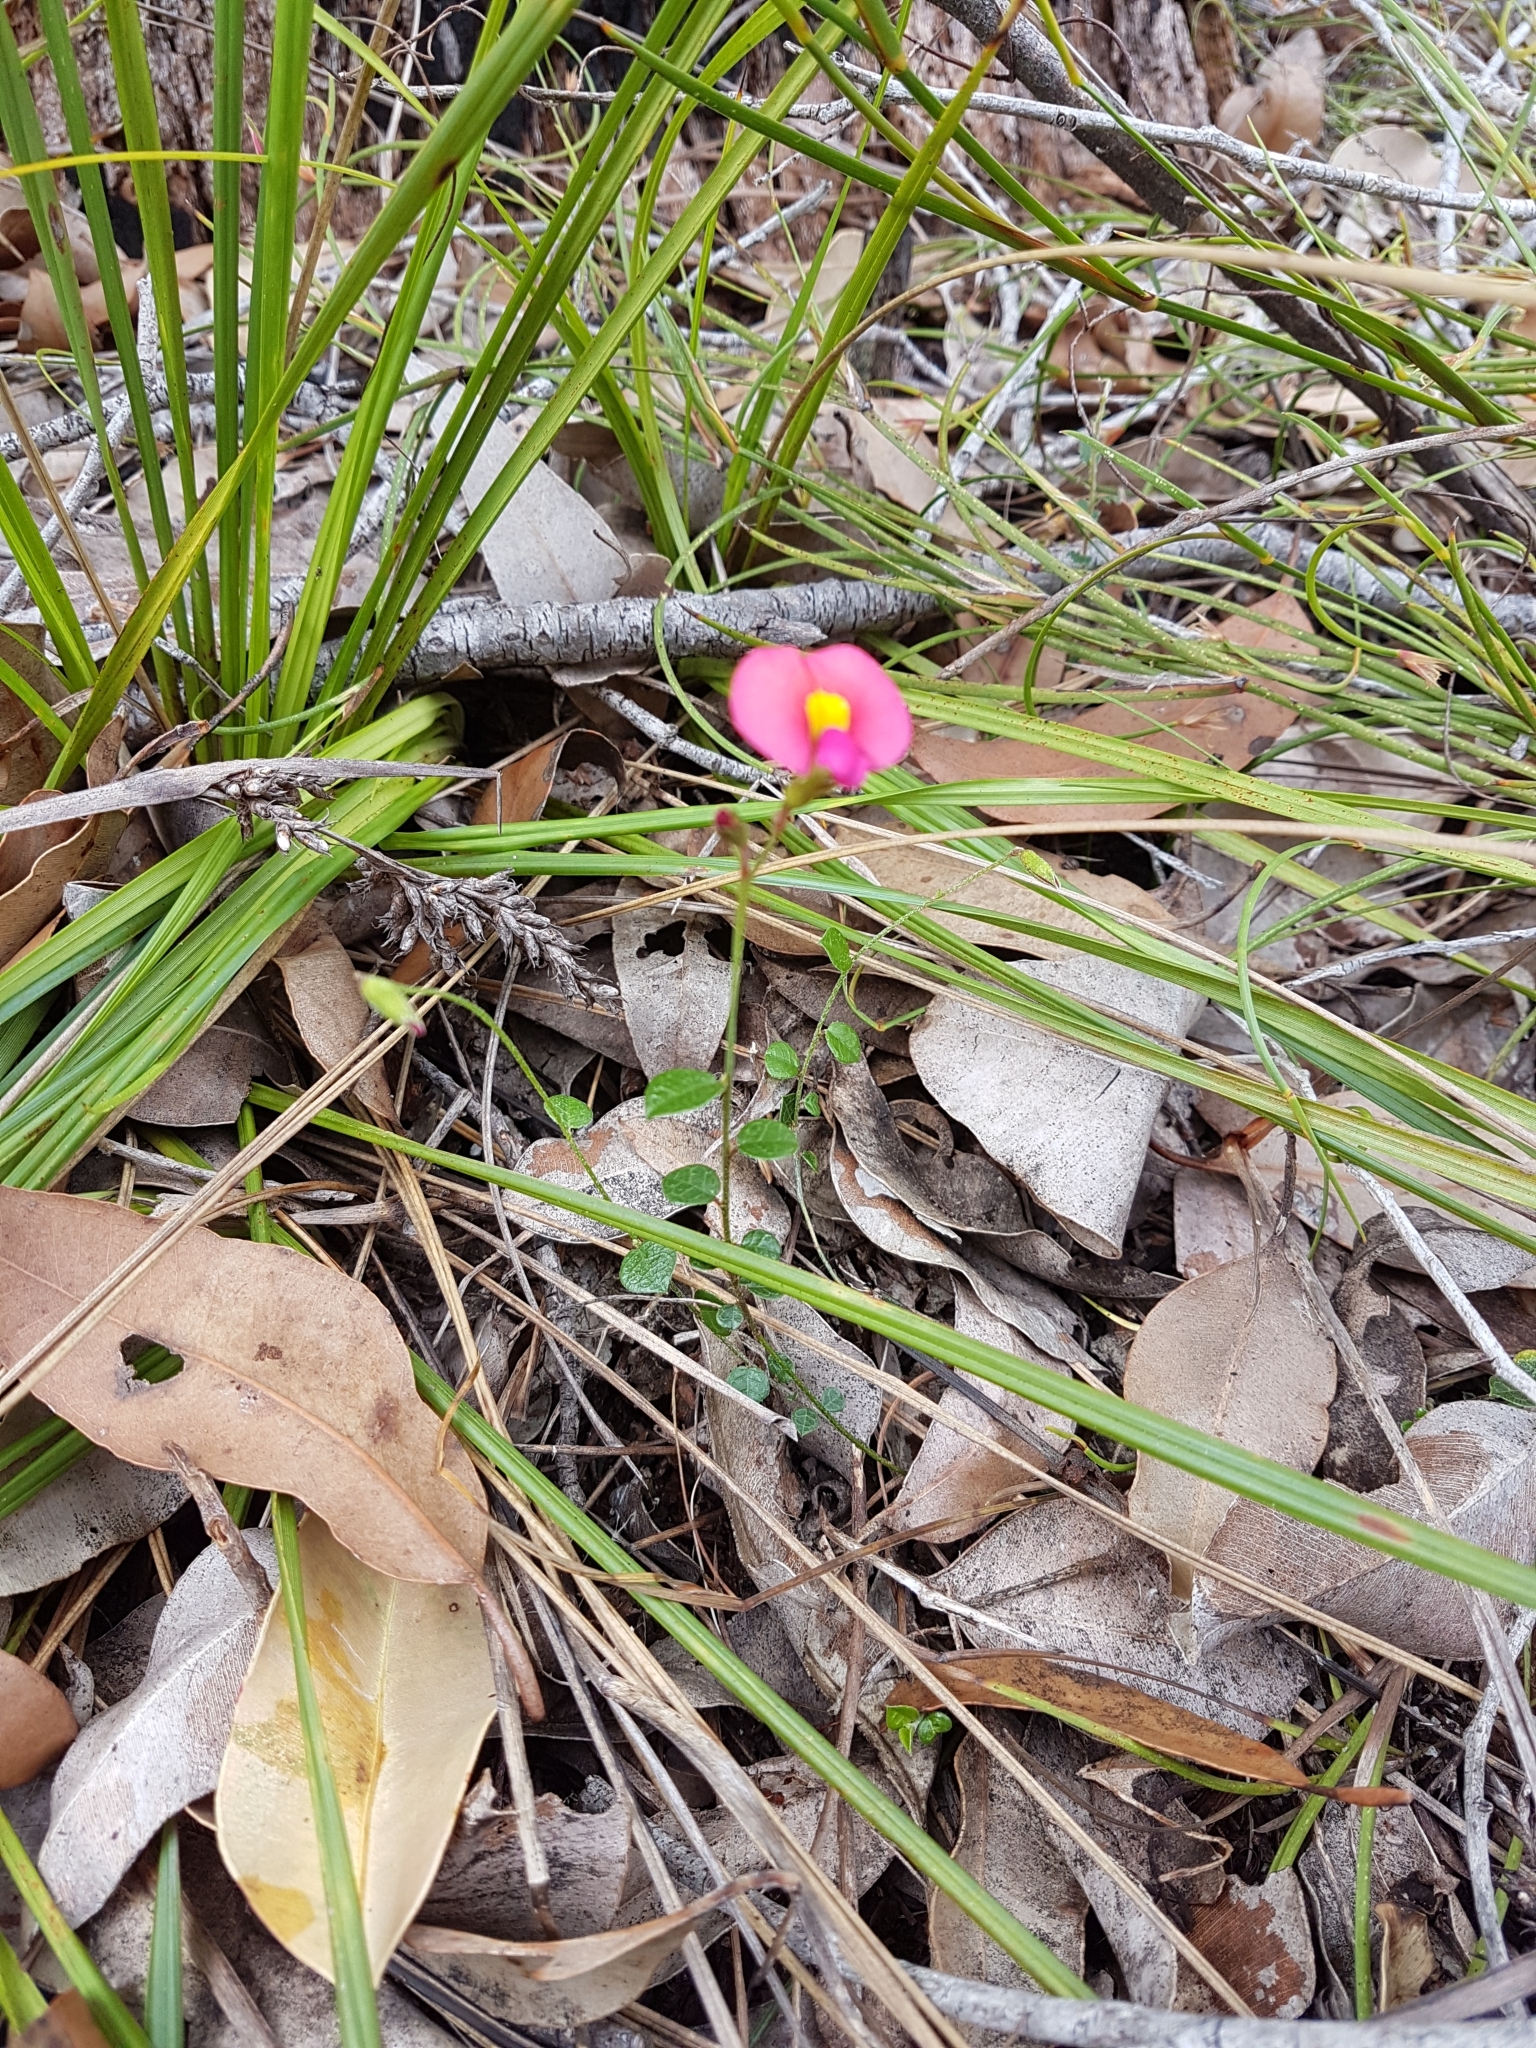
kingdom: Plantae
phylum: Tracheophyta
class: Magnoliopsida
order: Fabales
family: Fabaceae
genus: Chorizema
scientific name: Chorizema rhombeum
